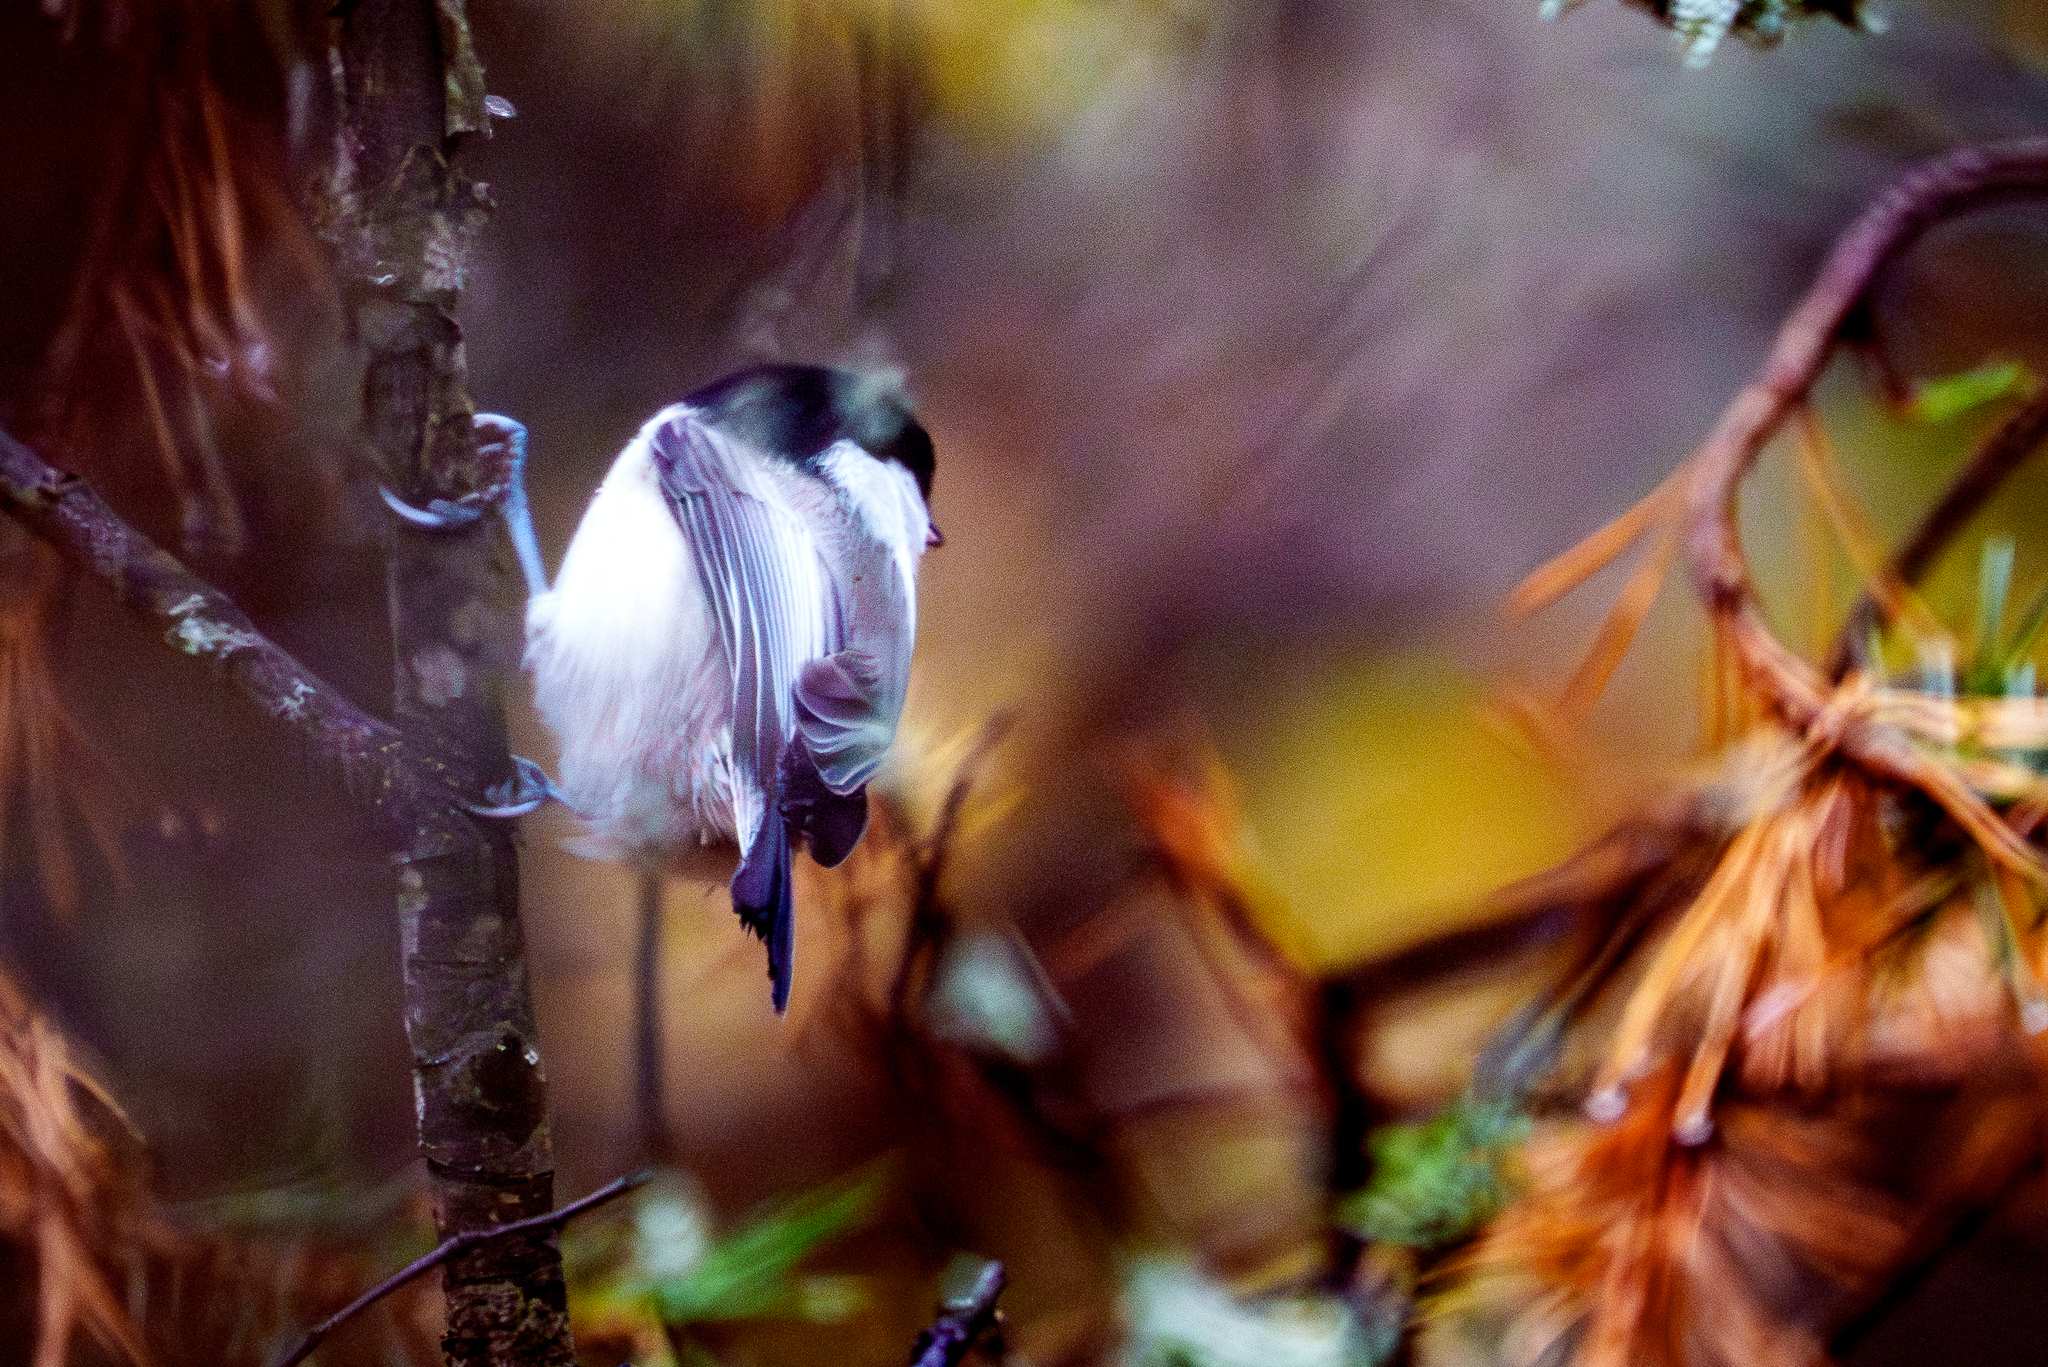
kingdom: Animalia
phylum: Chordata
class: Aves
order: Passeriformes
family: Paridae
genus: Poecile
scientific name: Poecile montanus
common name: Willow tit
